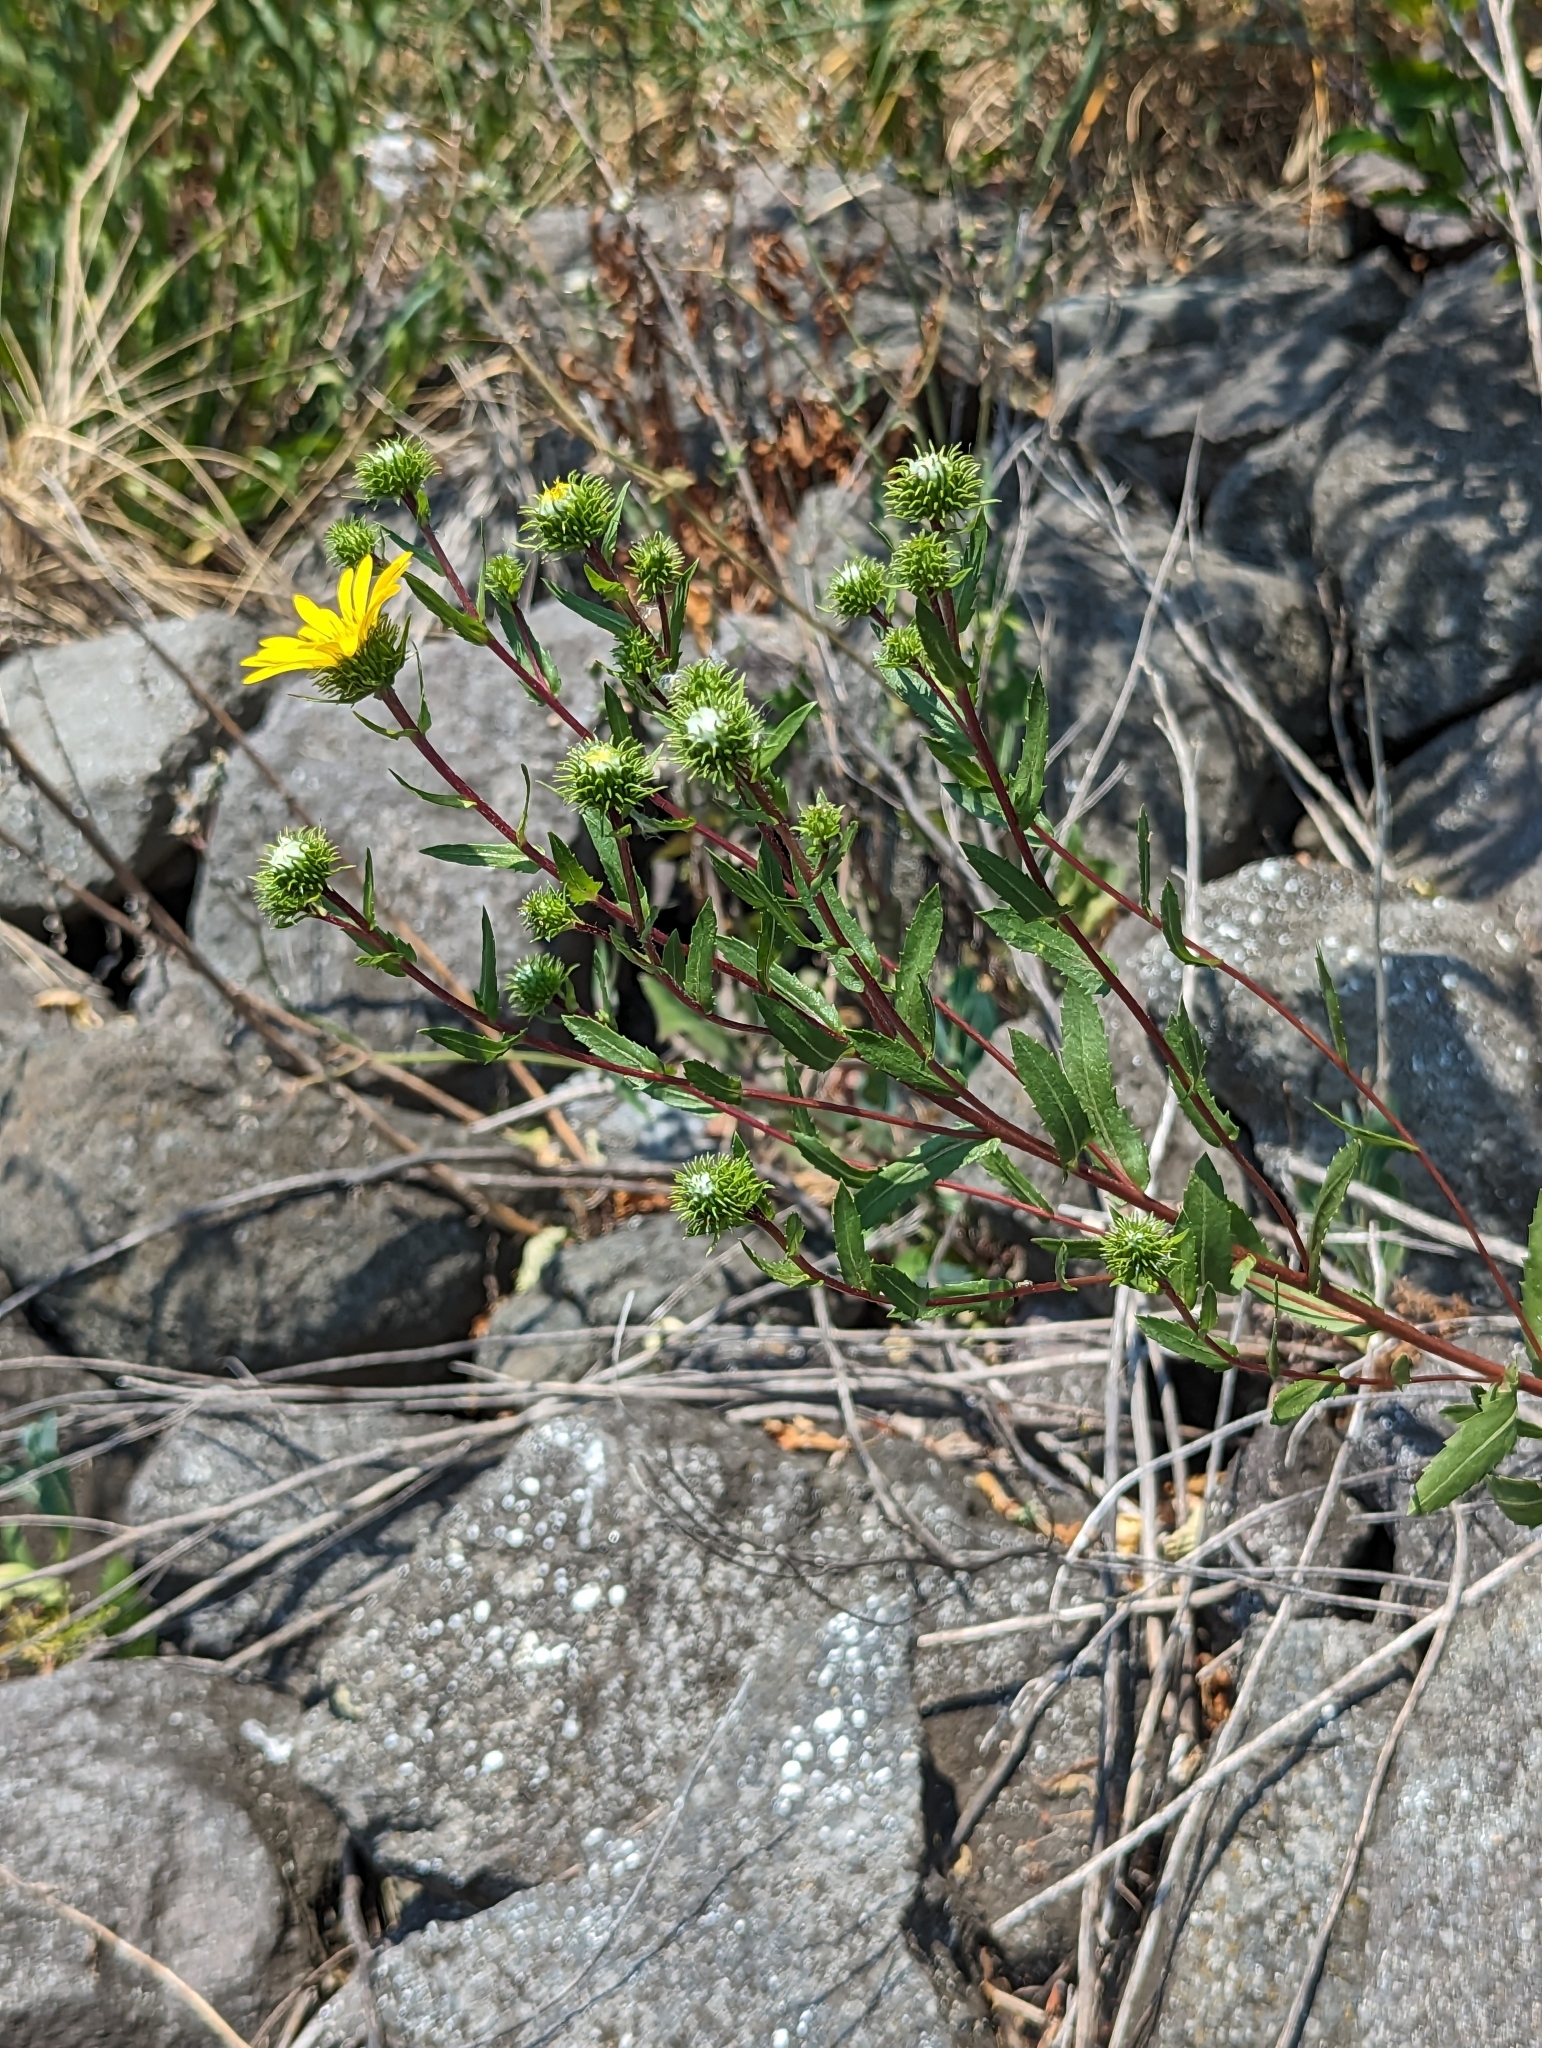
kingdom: Plantae
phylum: Tracheophyta
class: Magnoliopsida
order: Asterales
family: Asteraceae
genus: Grindelia
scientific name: Grindelia integrifolia
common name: Puget sound gumweed
